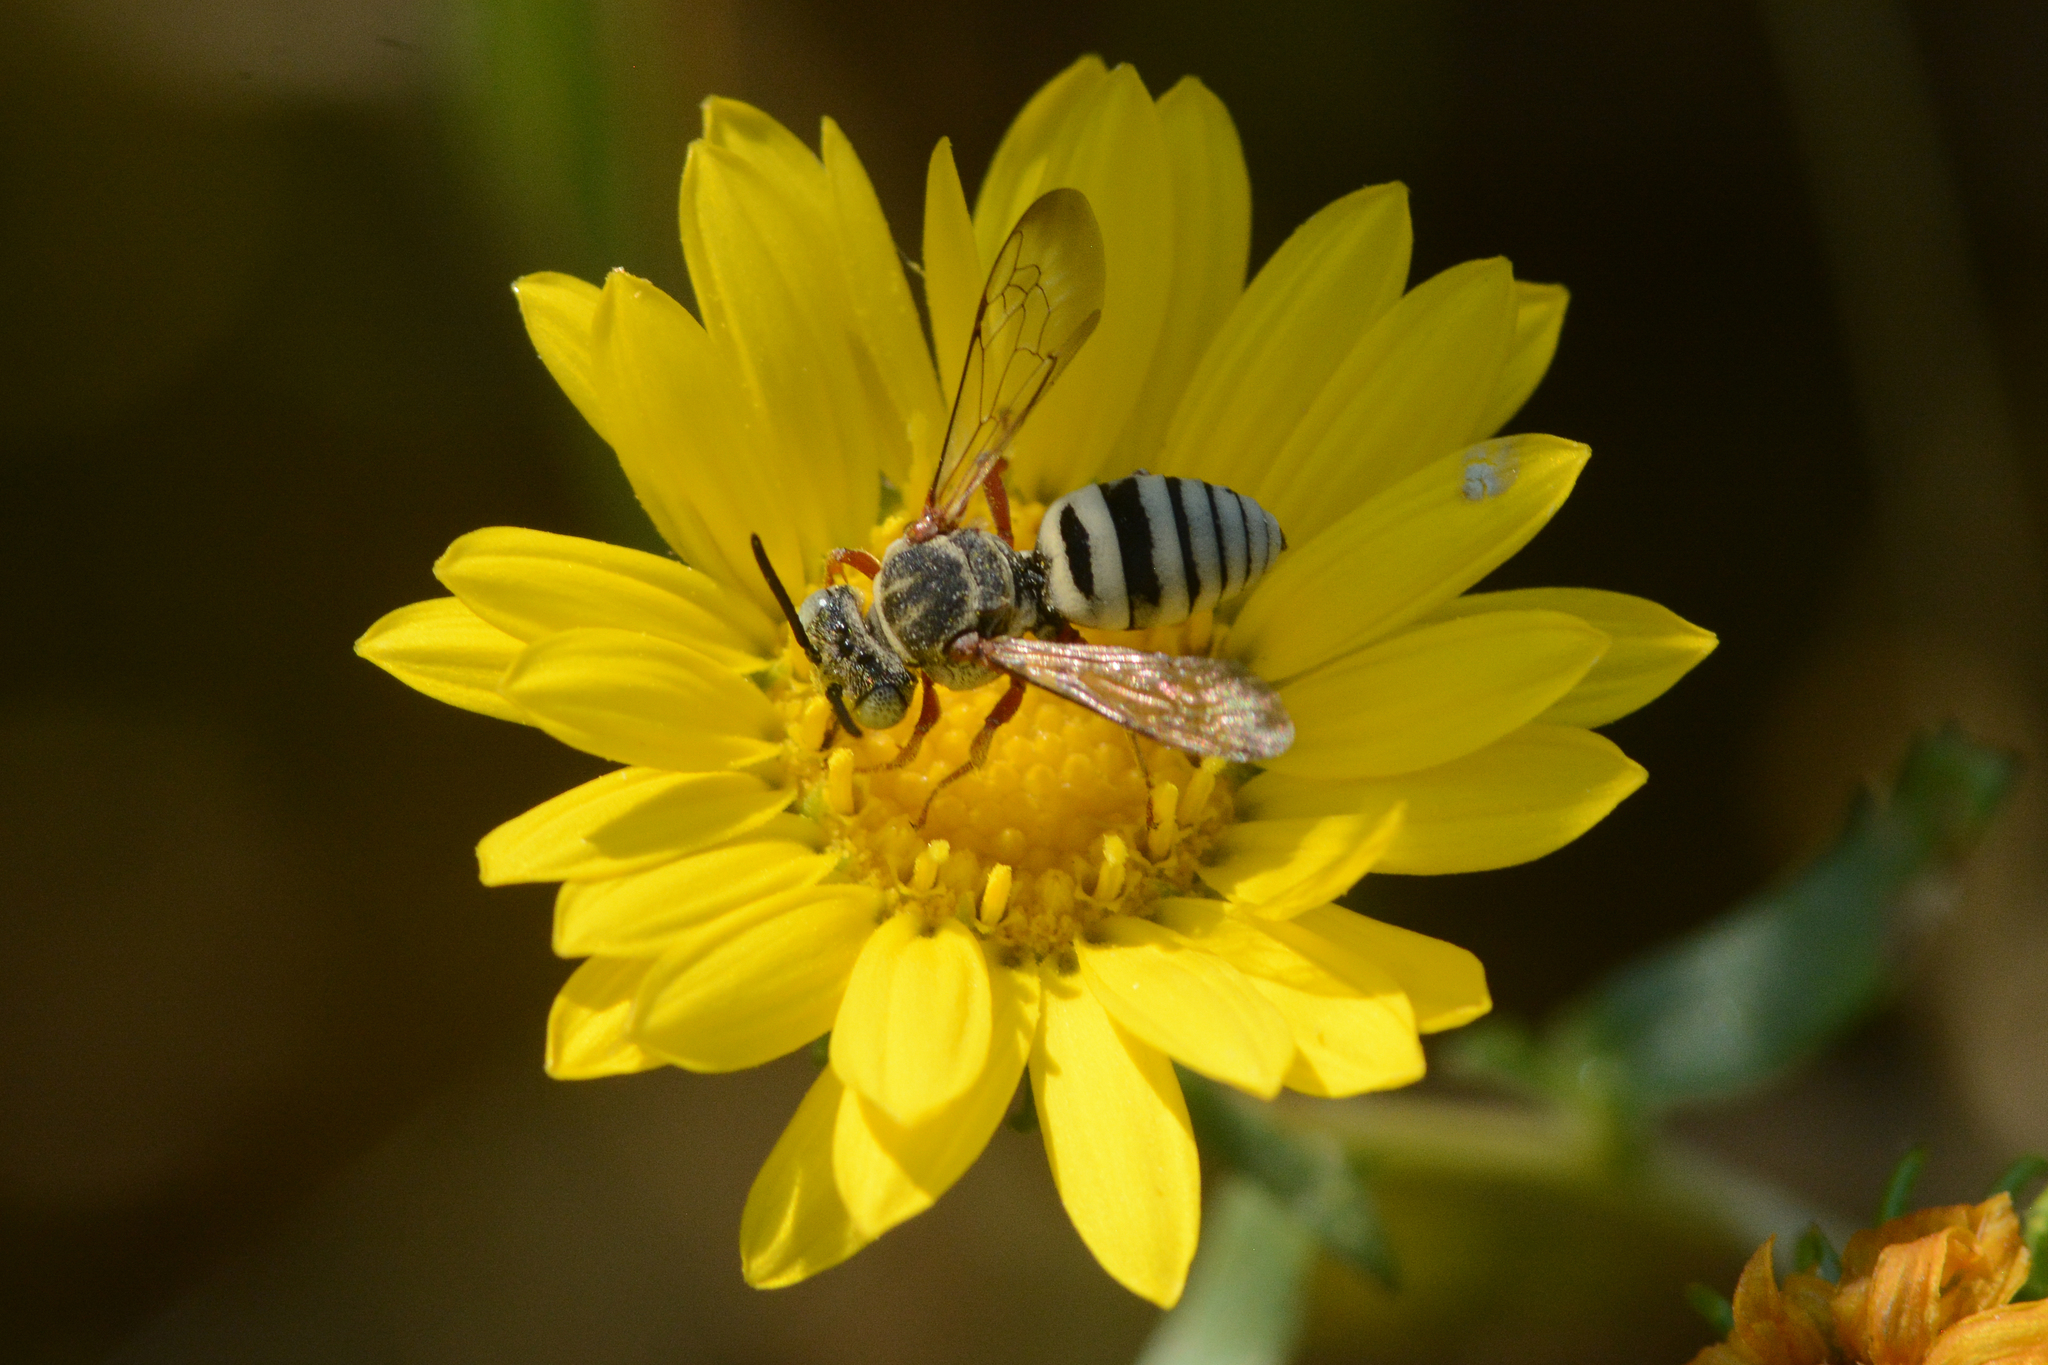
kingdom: Animalia
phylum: Arthropoda
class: Insecta
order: Hymenoptera
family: Apidae
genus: Epeolus
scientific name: Epeolus emiliae
